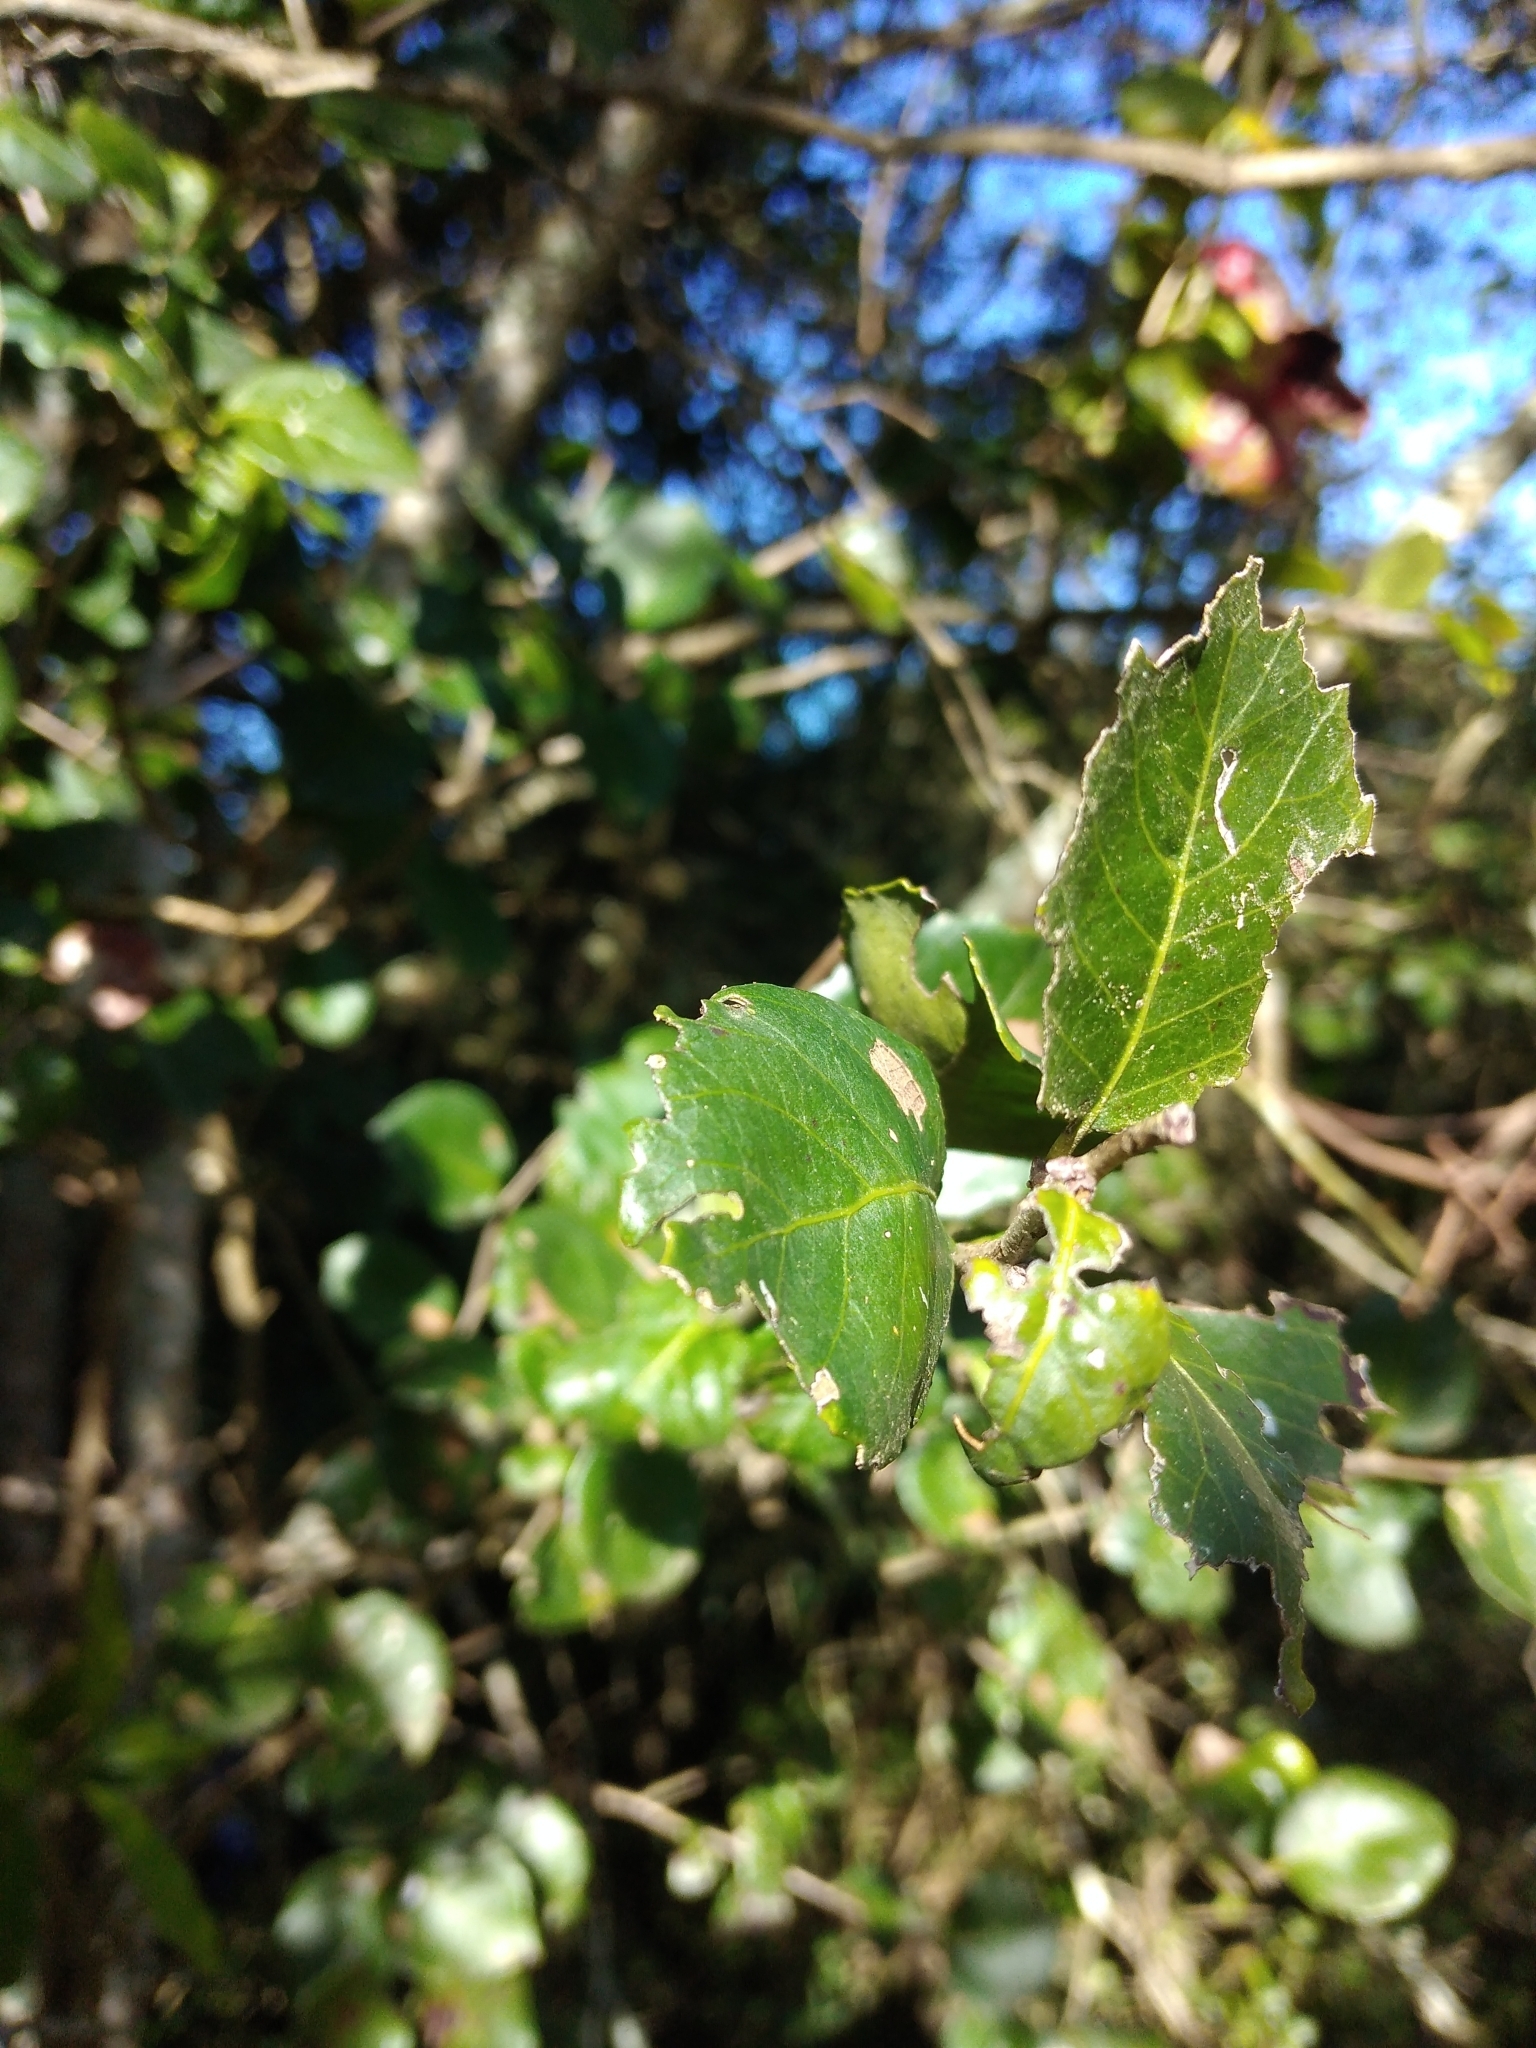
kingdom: Plantae
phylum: Tracheophyta
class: Magnoliopsida
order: Malpighiales
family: Salicaceae
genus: Xylosma
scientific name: Xylosma tweediana
